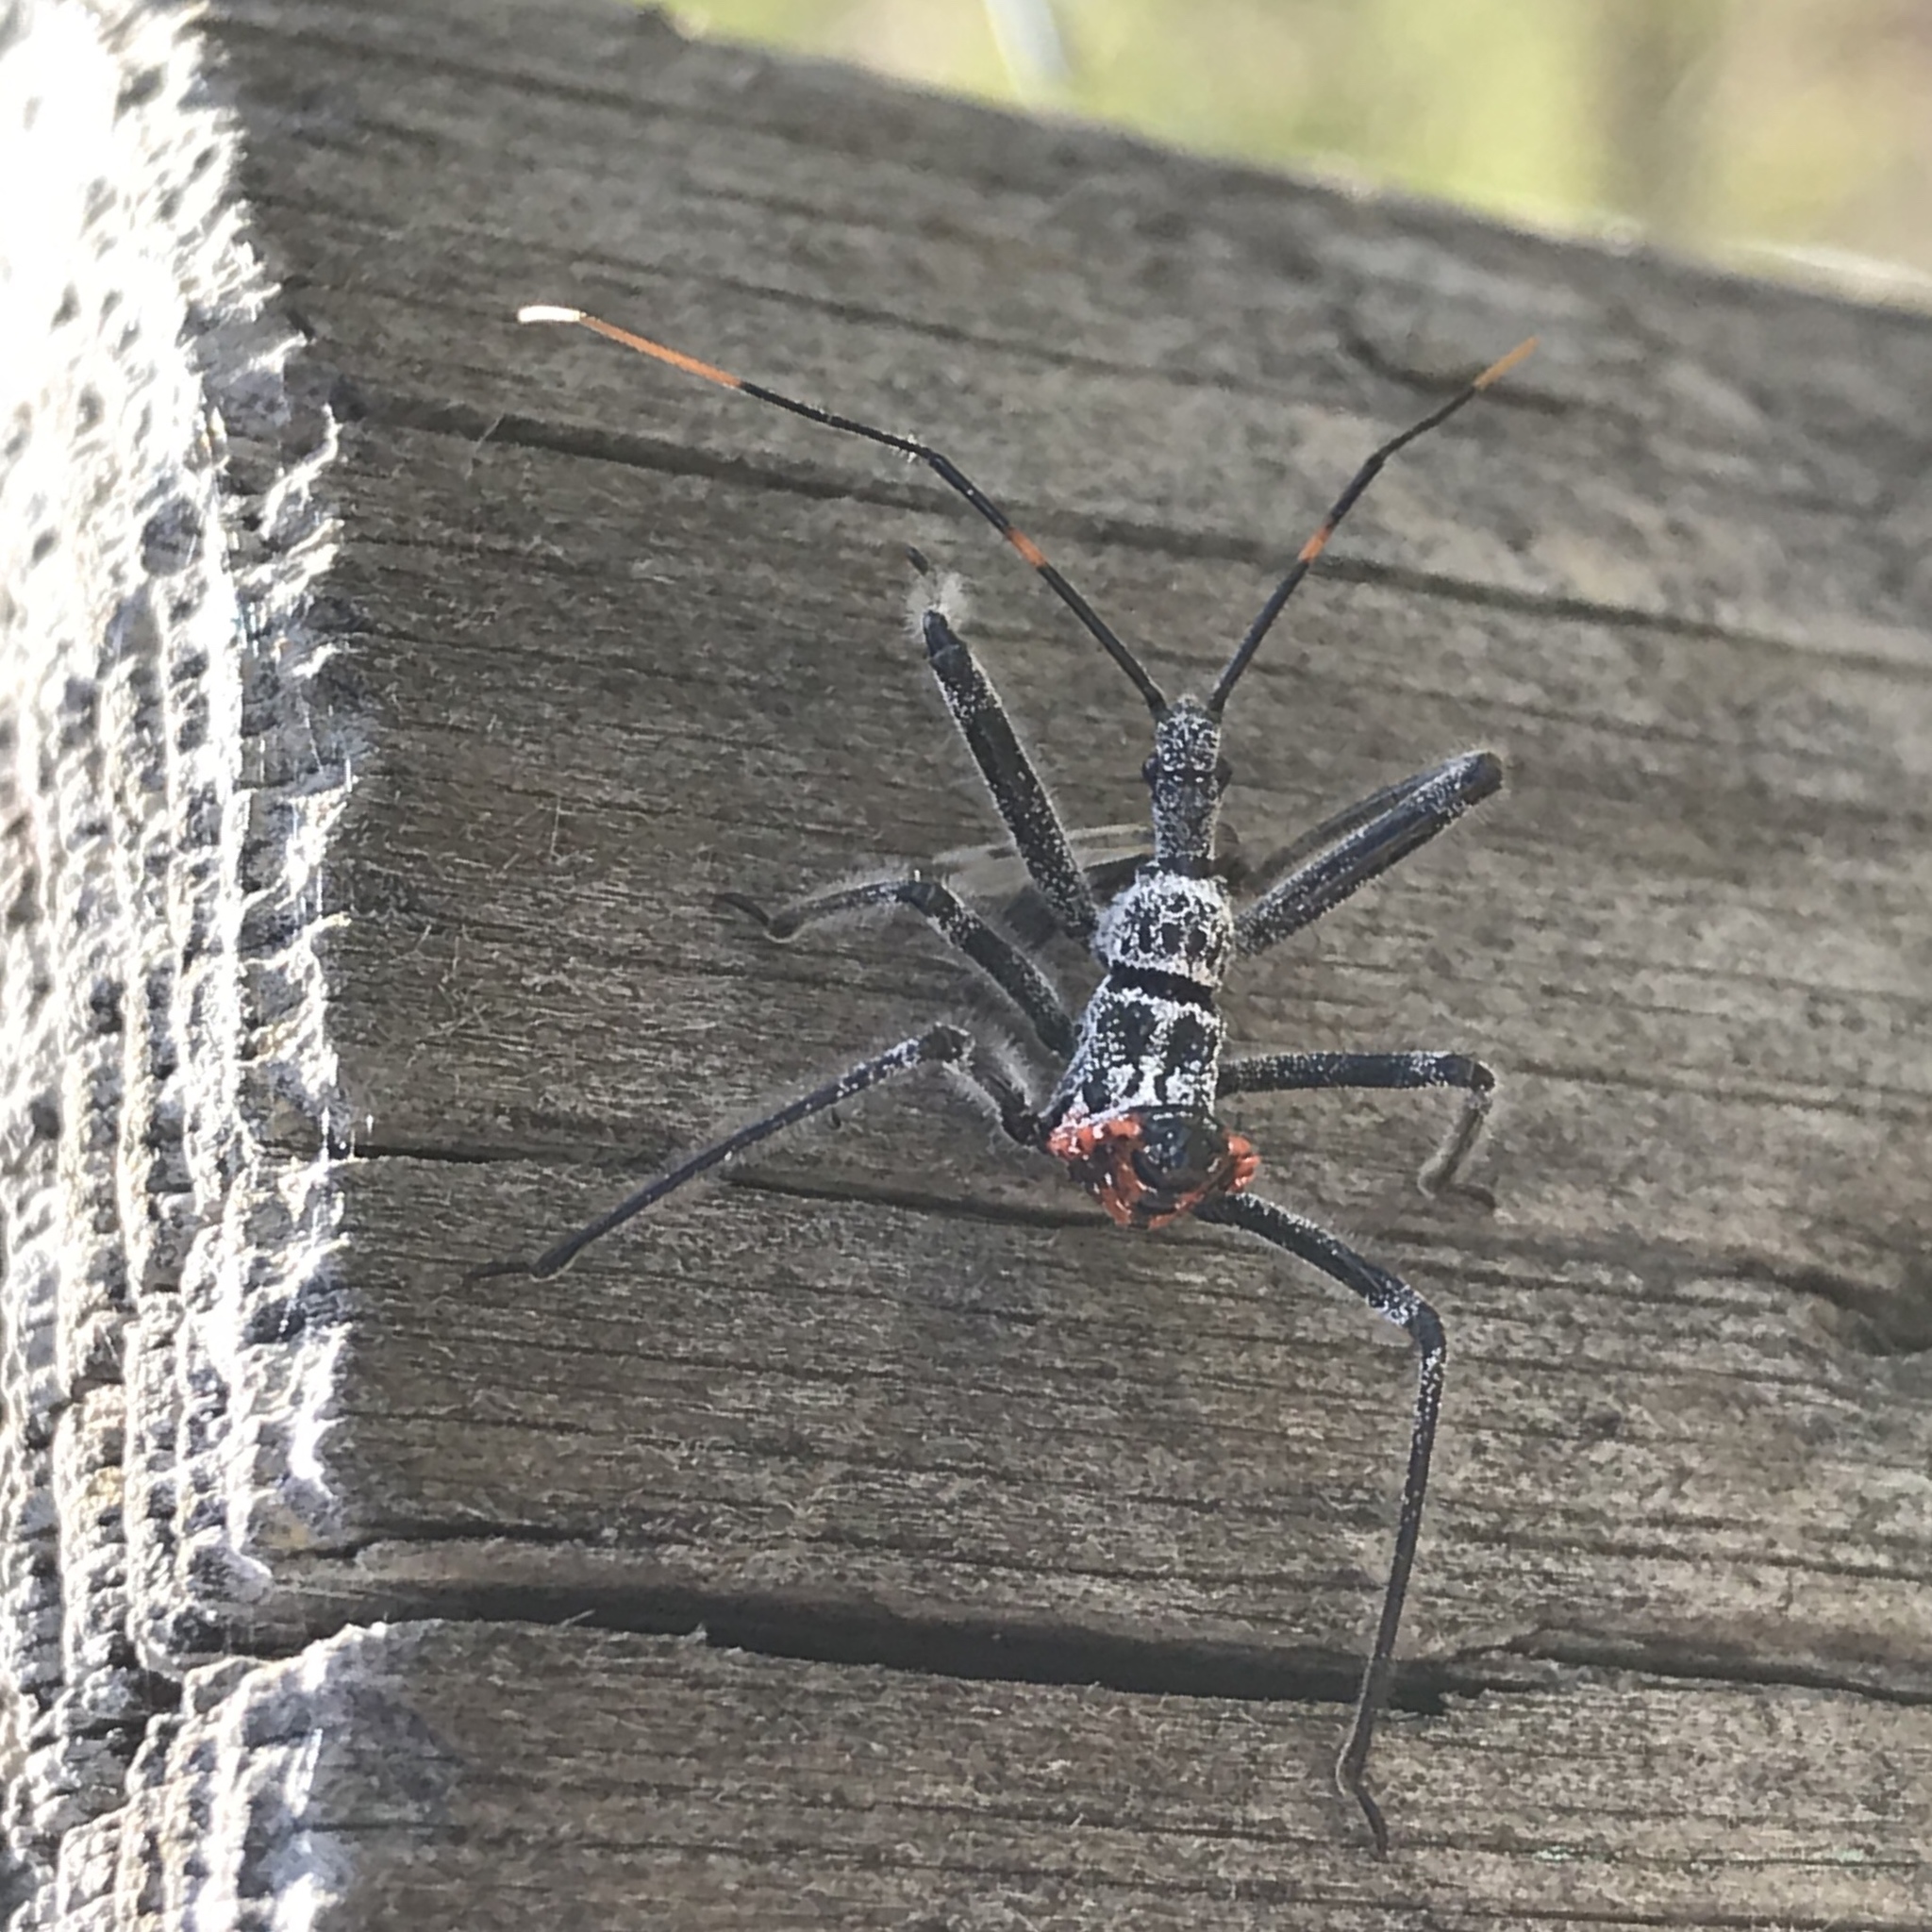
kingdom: Animalia
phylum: Arthropoda
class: Insecta
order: Hemiptera
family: Reduviidae
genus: Arilus
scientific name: Arilus cristatus
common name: North american wheel bug
